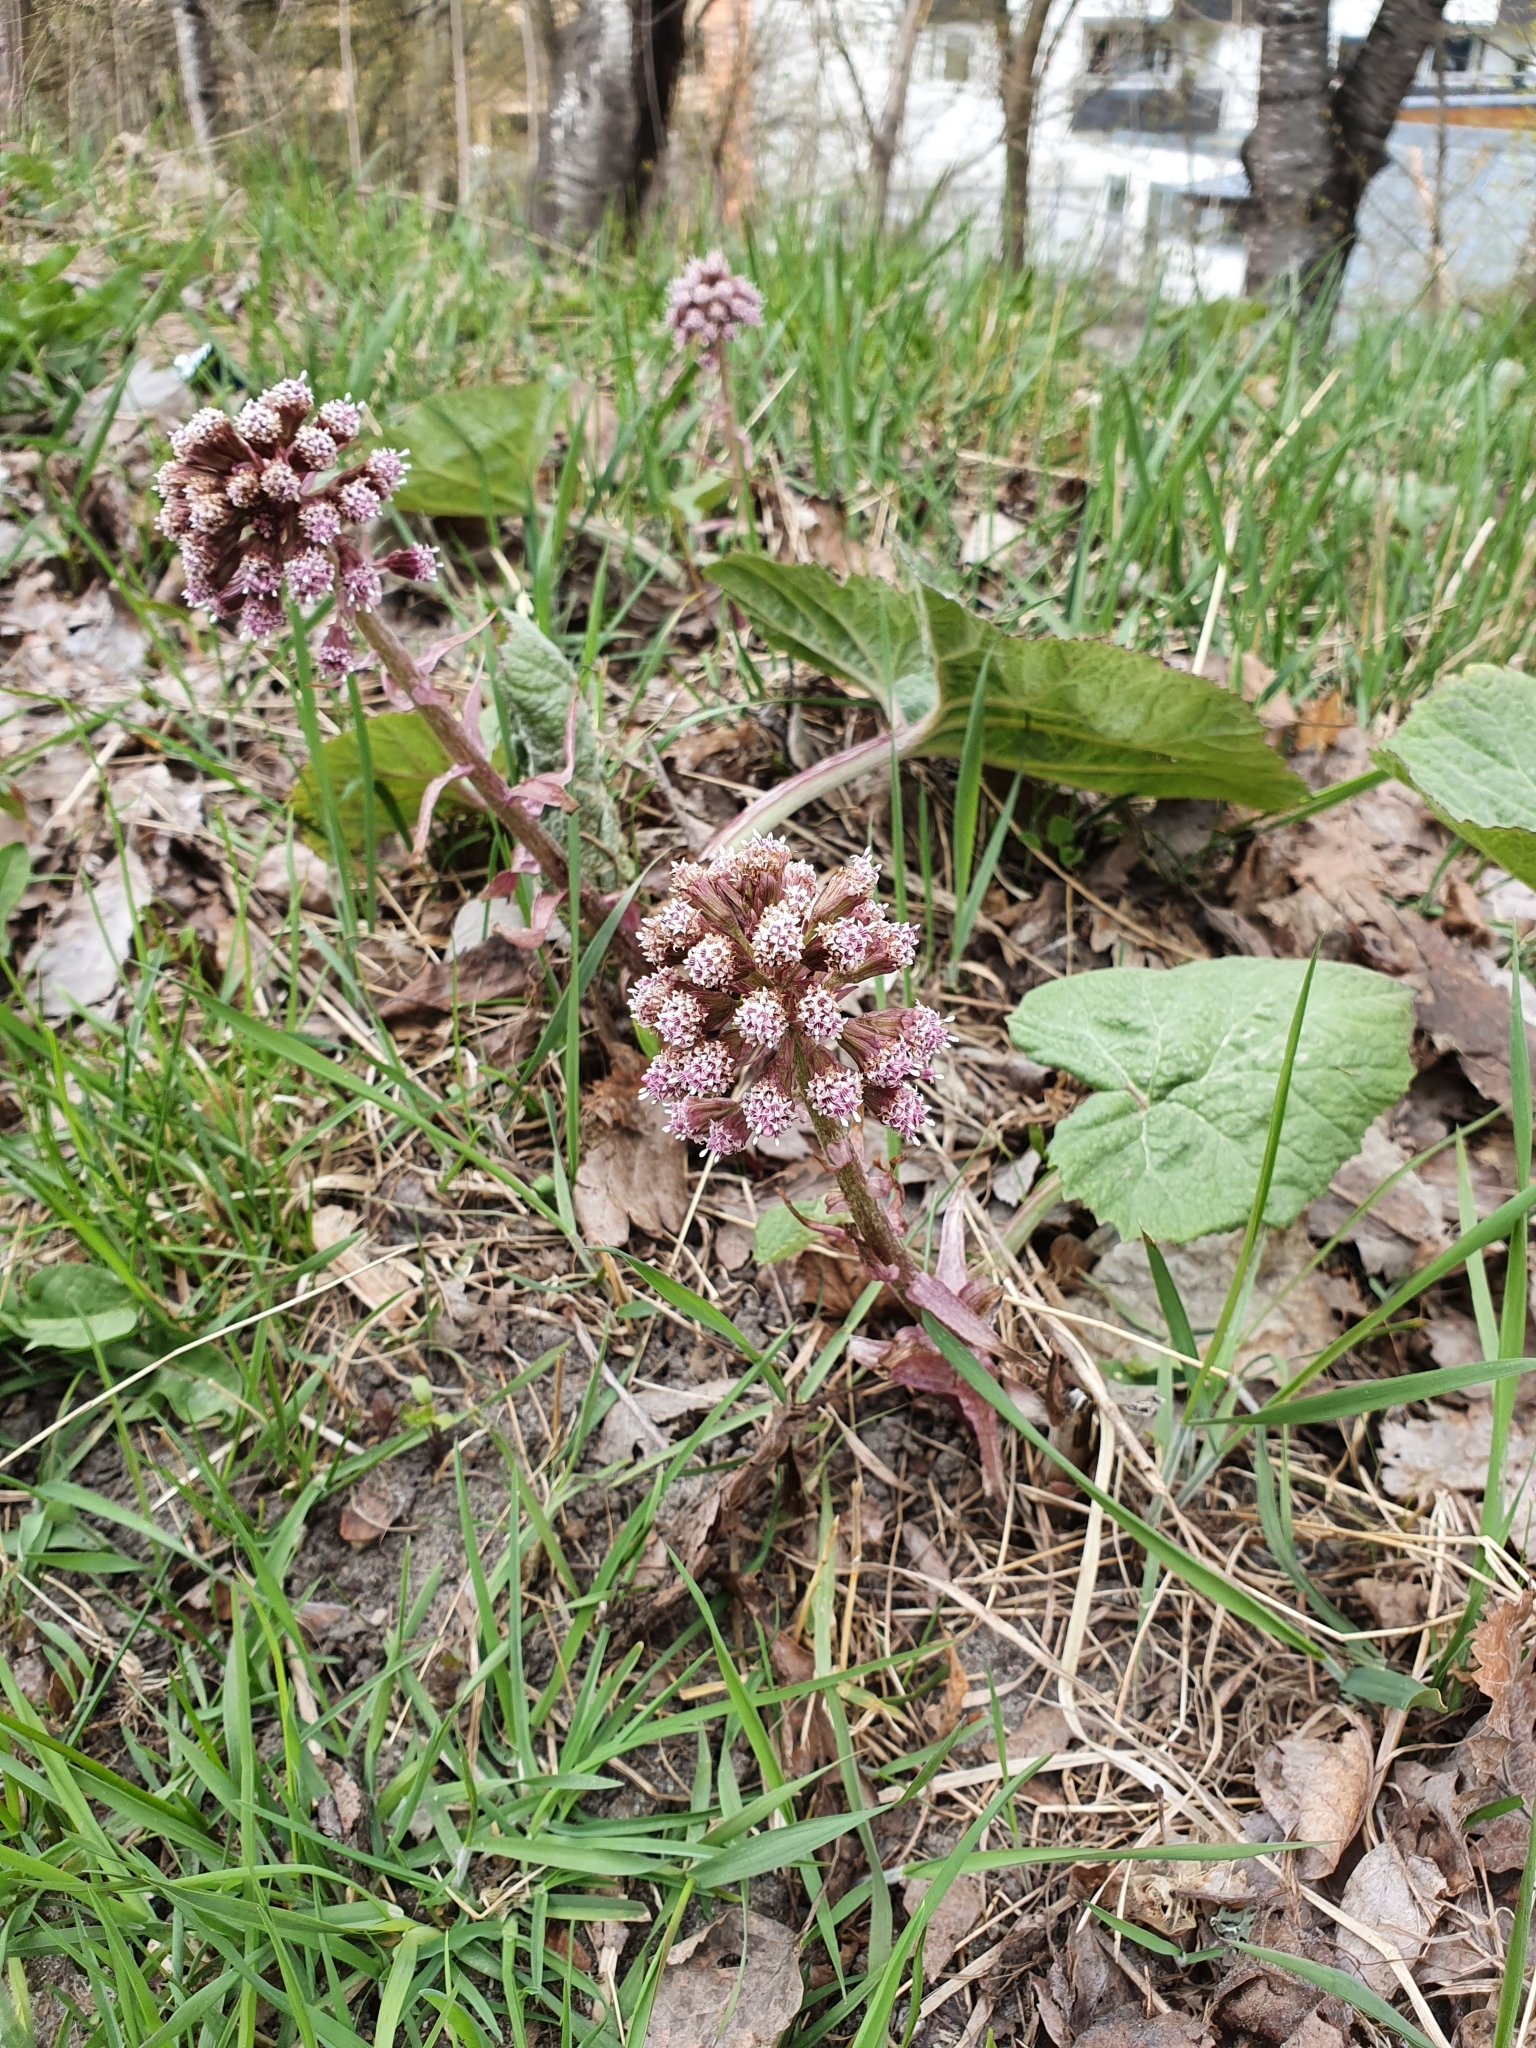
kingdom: Plantae
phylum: Tracheophyta
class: Magnoliopsida
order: Asterales
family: Asteraceae
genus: Petasites
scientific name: Petasites hybridus
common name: Butterbur
